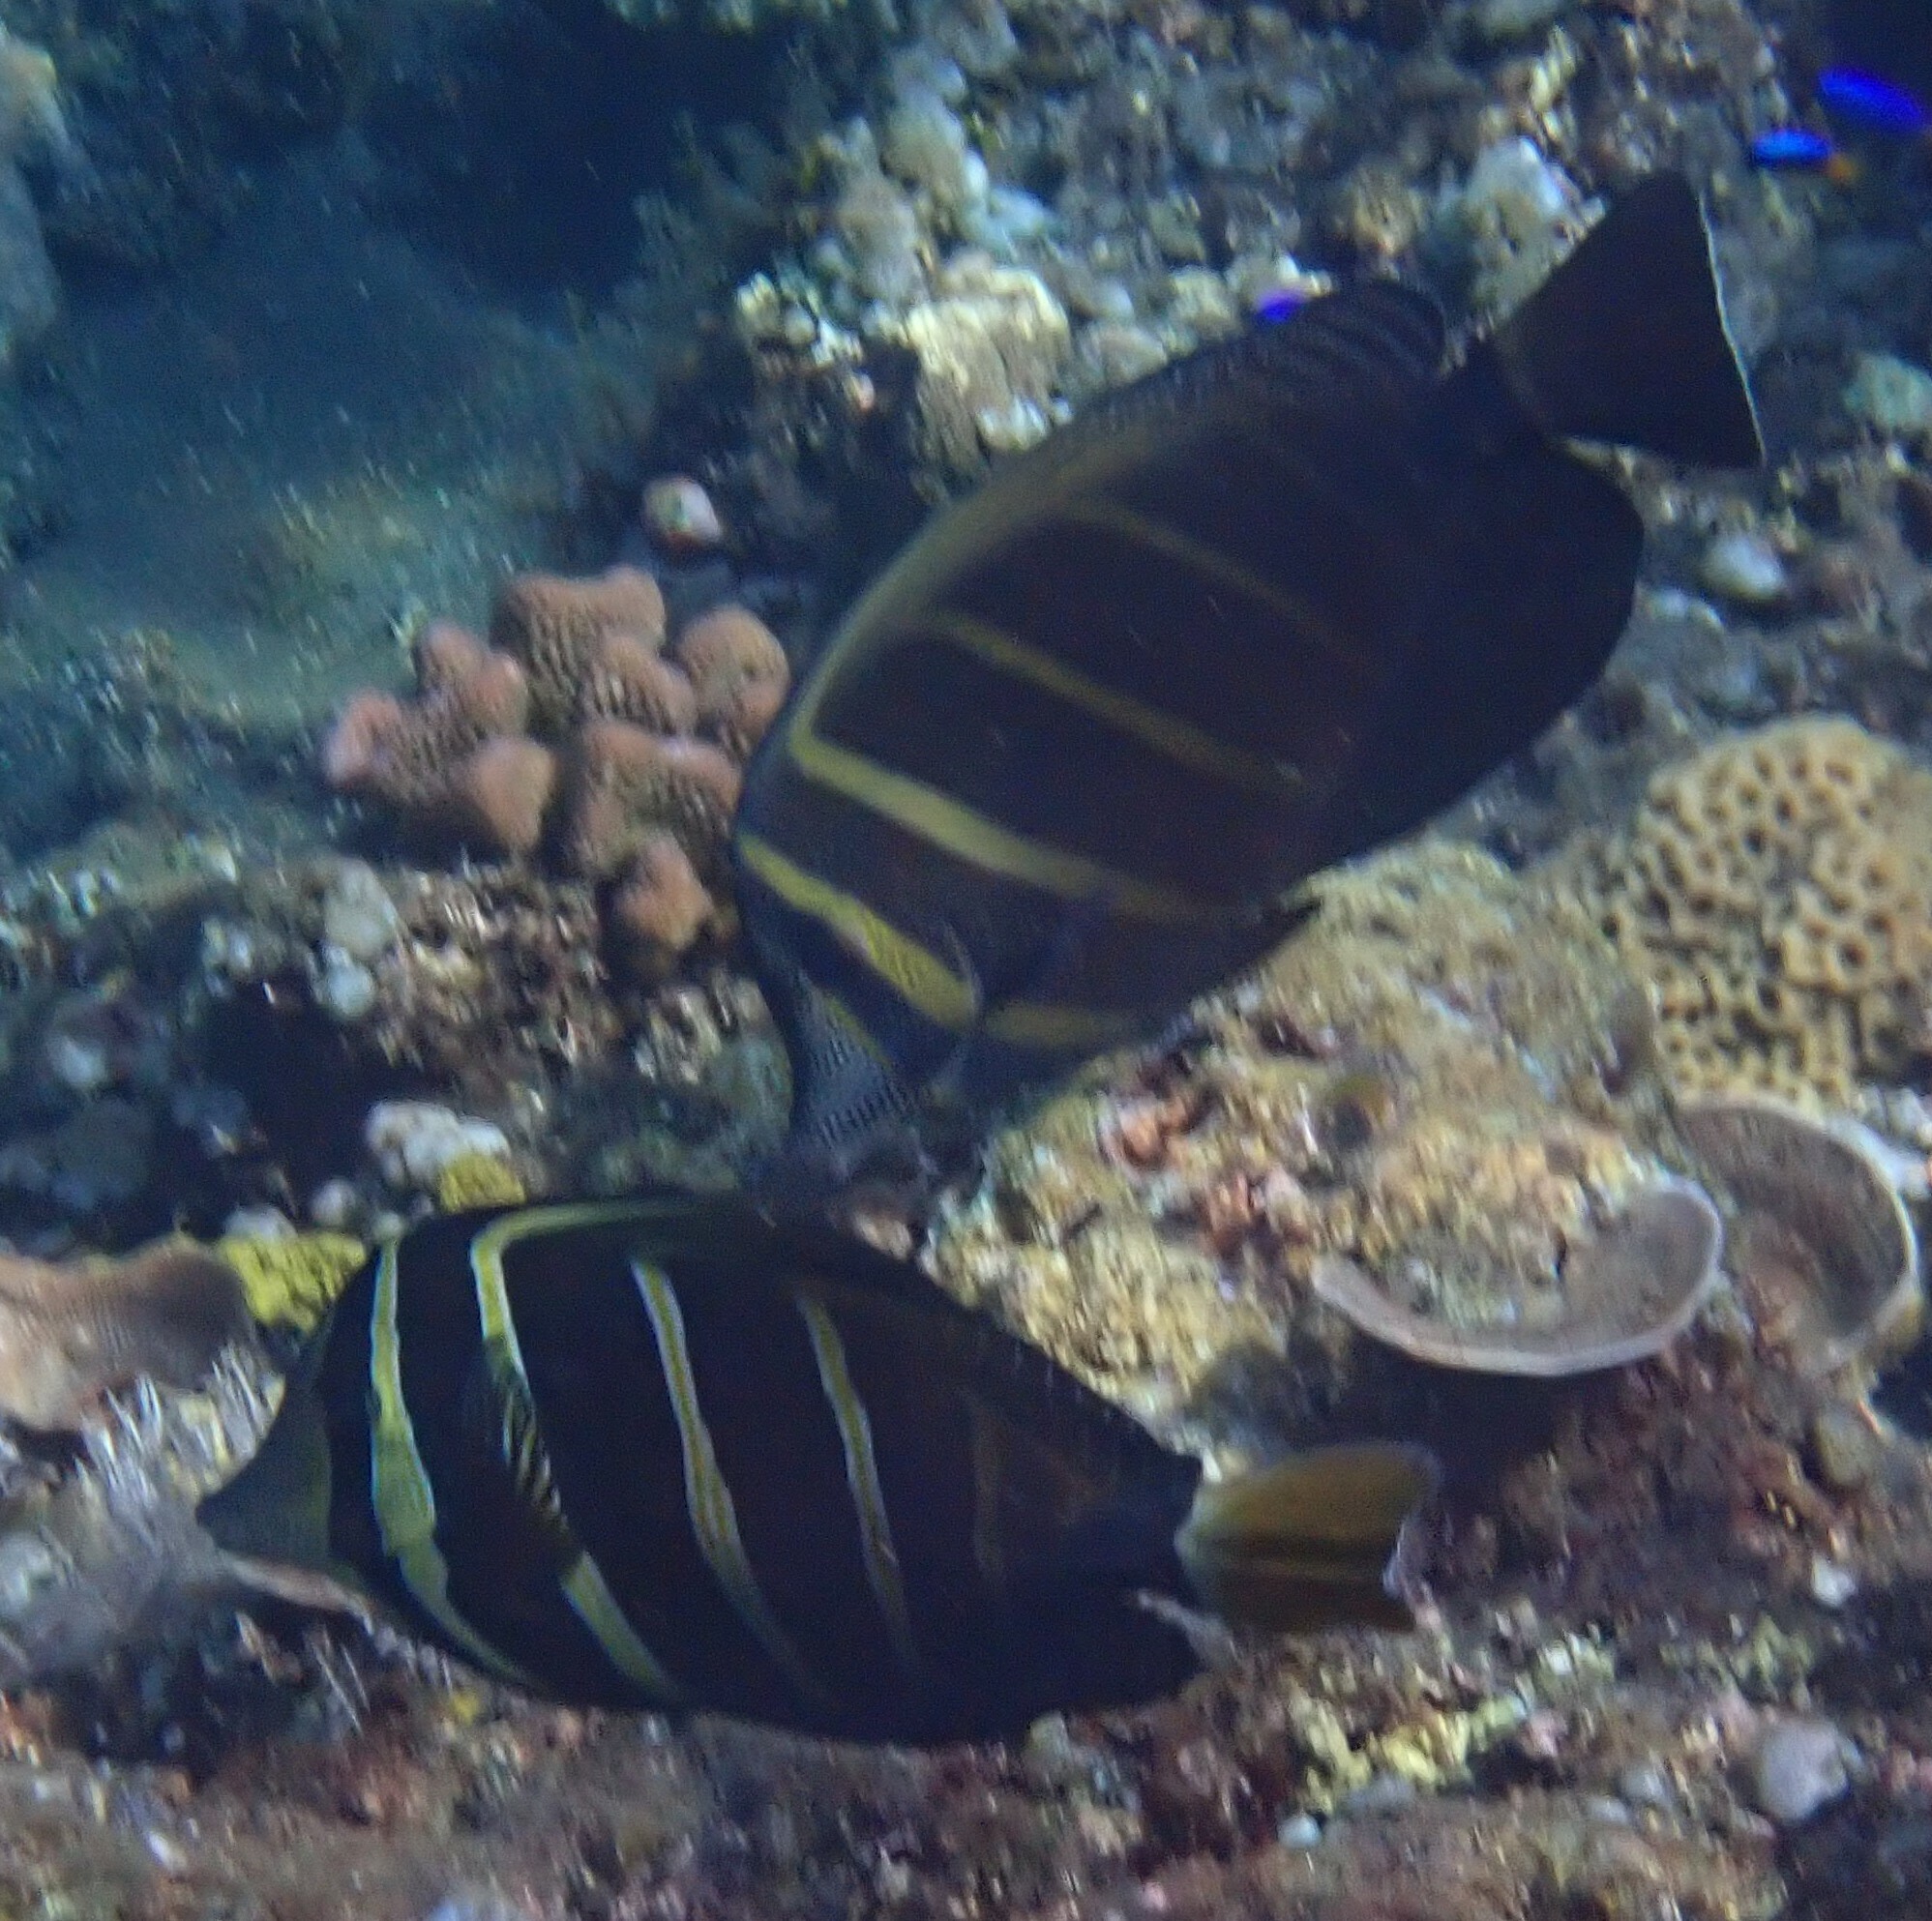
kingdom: Animalia
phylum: Chordata
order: Perciformes
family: Acanthuridae
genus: Zebrasoma
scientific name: Zebrasoma veliferum
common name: Sailfin surgeonfish
